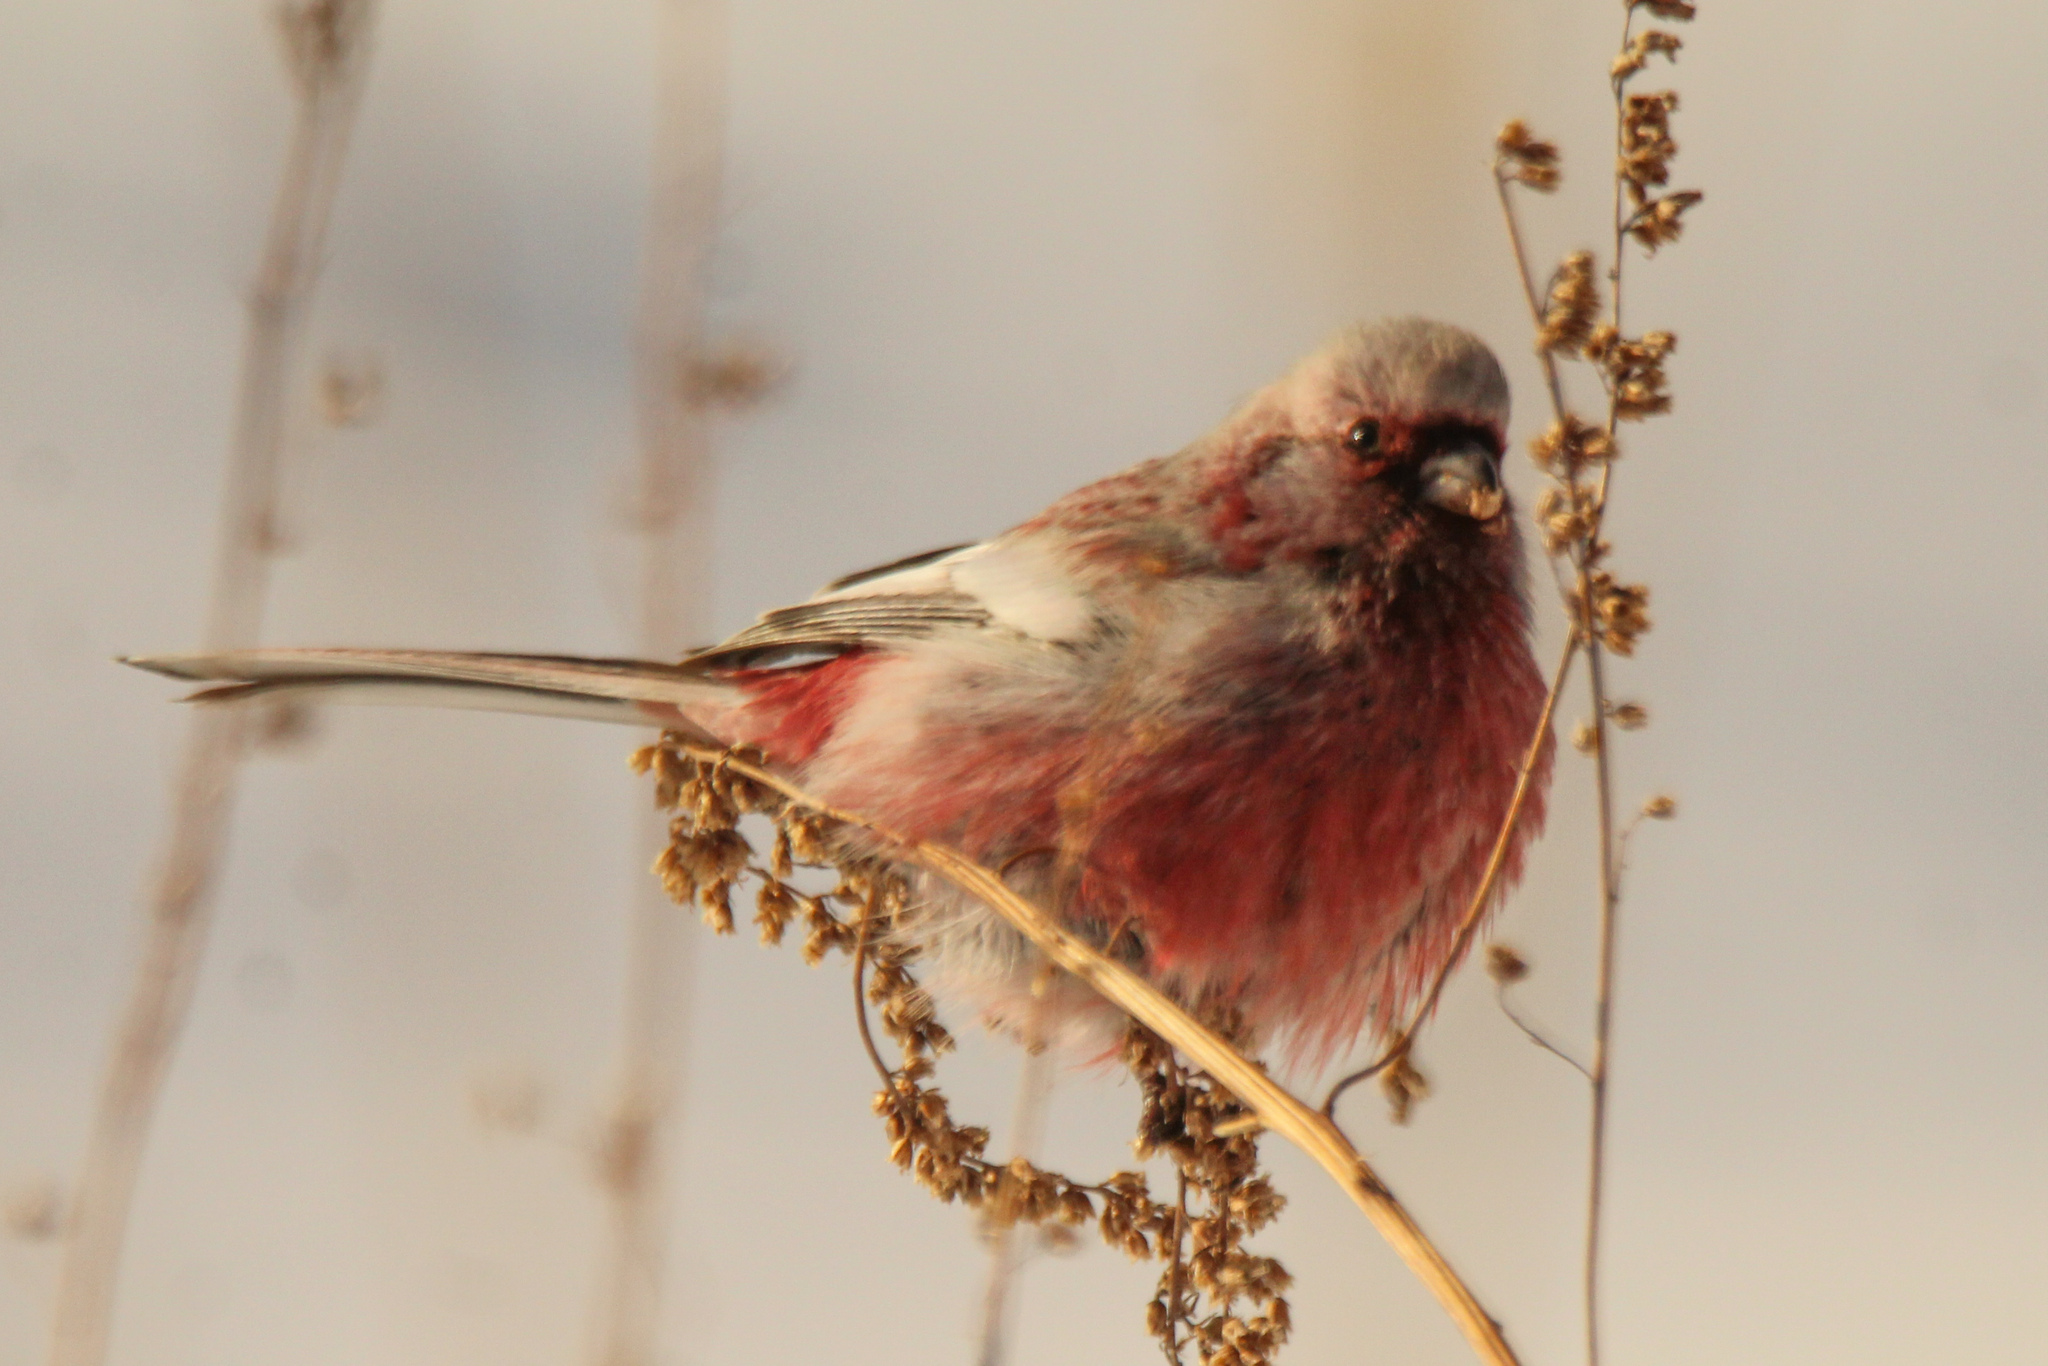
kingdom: Animalia
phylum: Chordata
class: Aves
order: Passeriformes
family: Fringillidae
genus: Carpodacus
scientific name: Carpodacus sibiricus
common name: Long-tailed rosefinch
